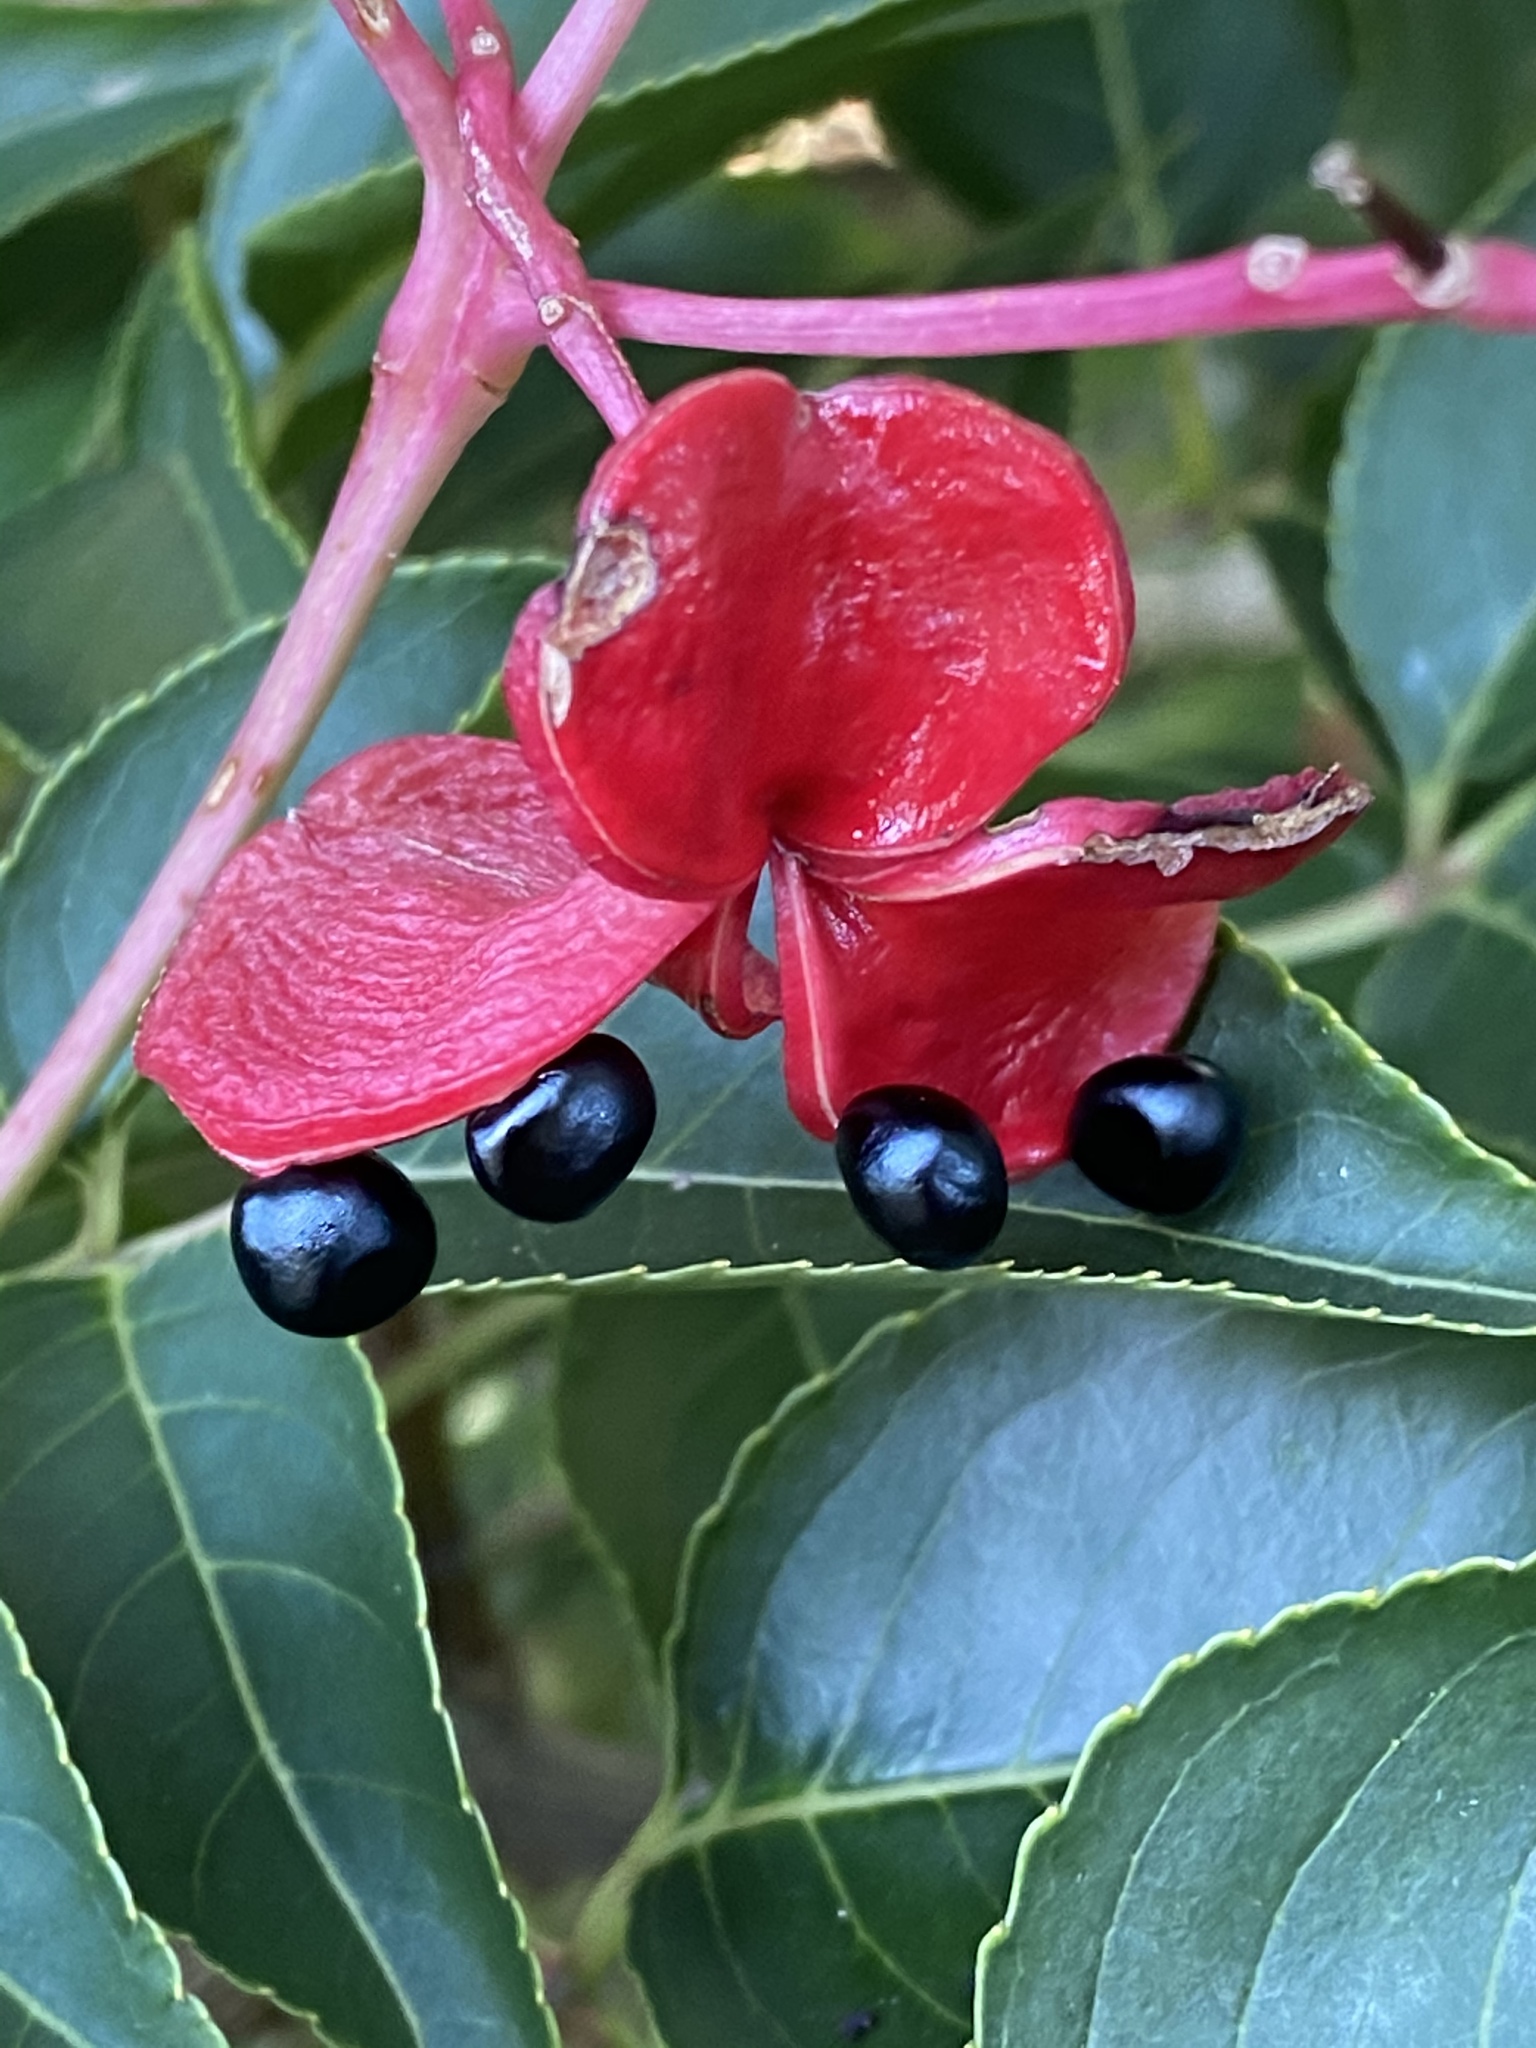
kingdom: Plantae
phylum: Tracheophyta
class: Magnoliopsida
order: Crossosomatales
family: Staphyleaceae
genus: Staphylea
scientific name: Staphylea japonica
